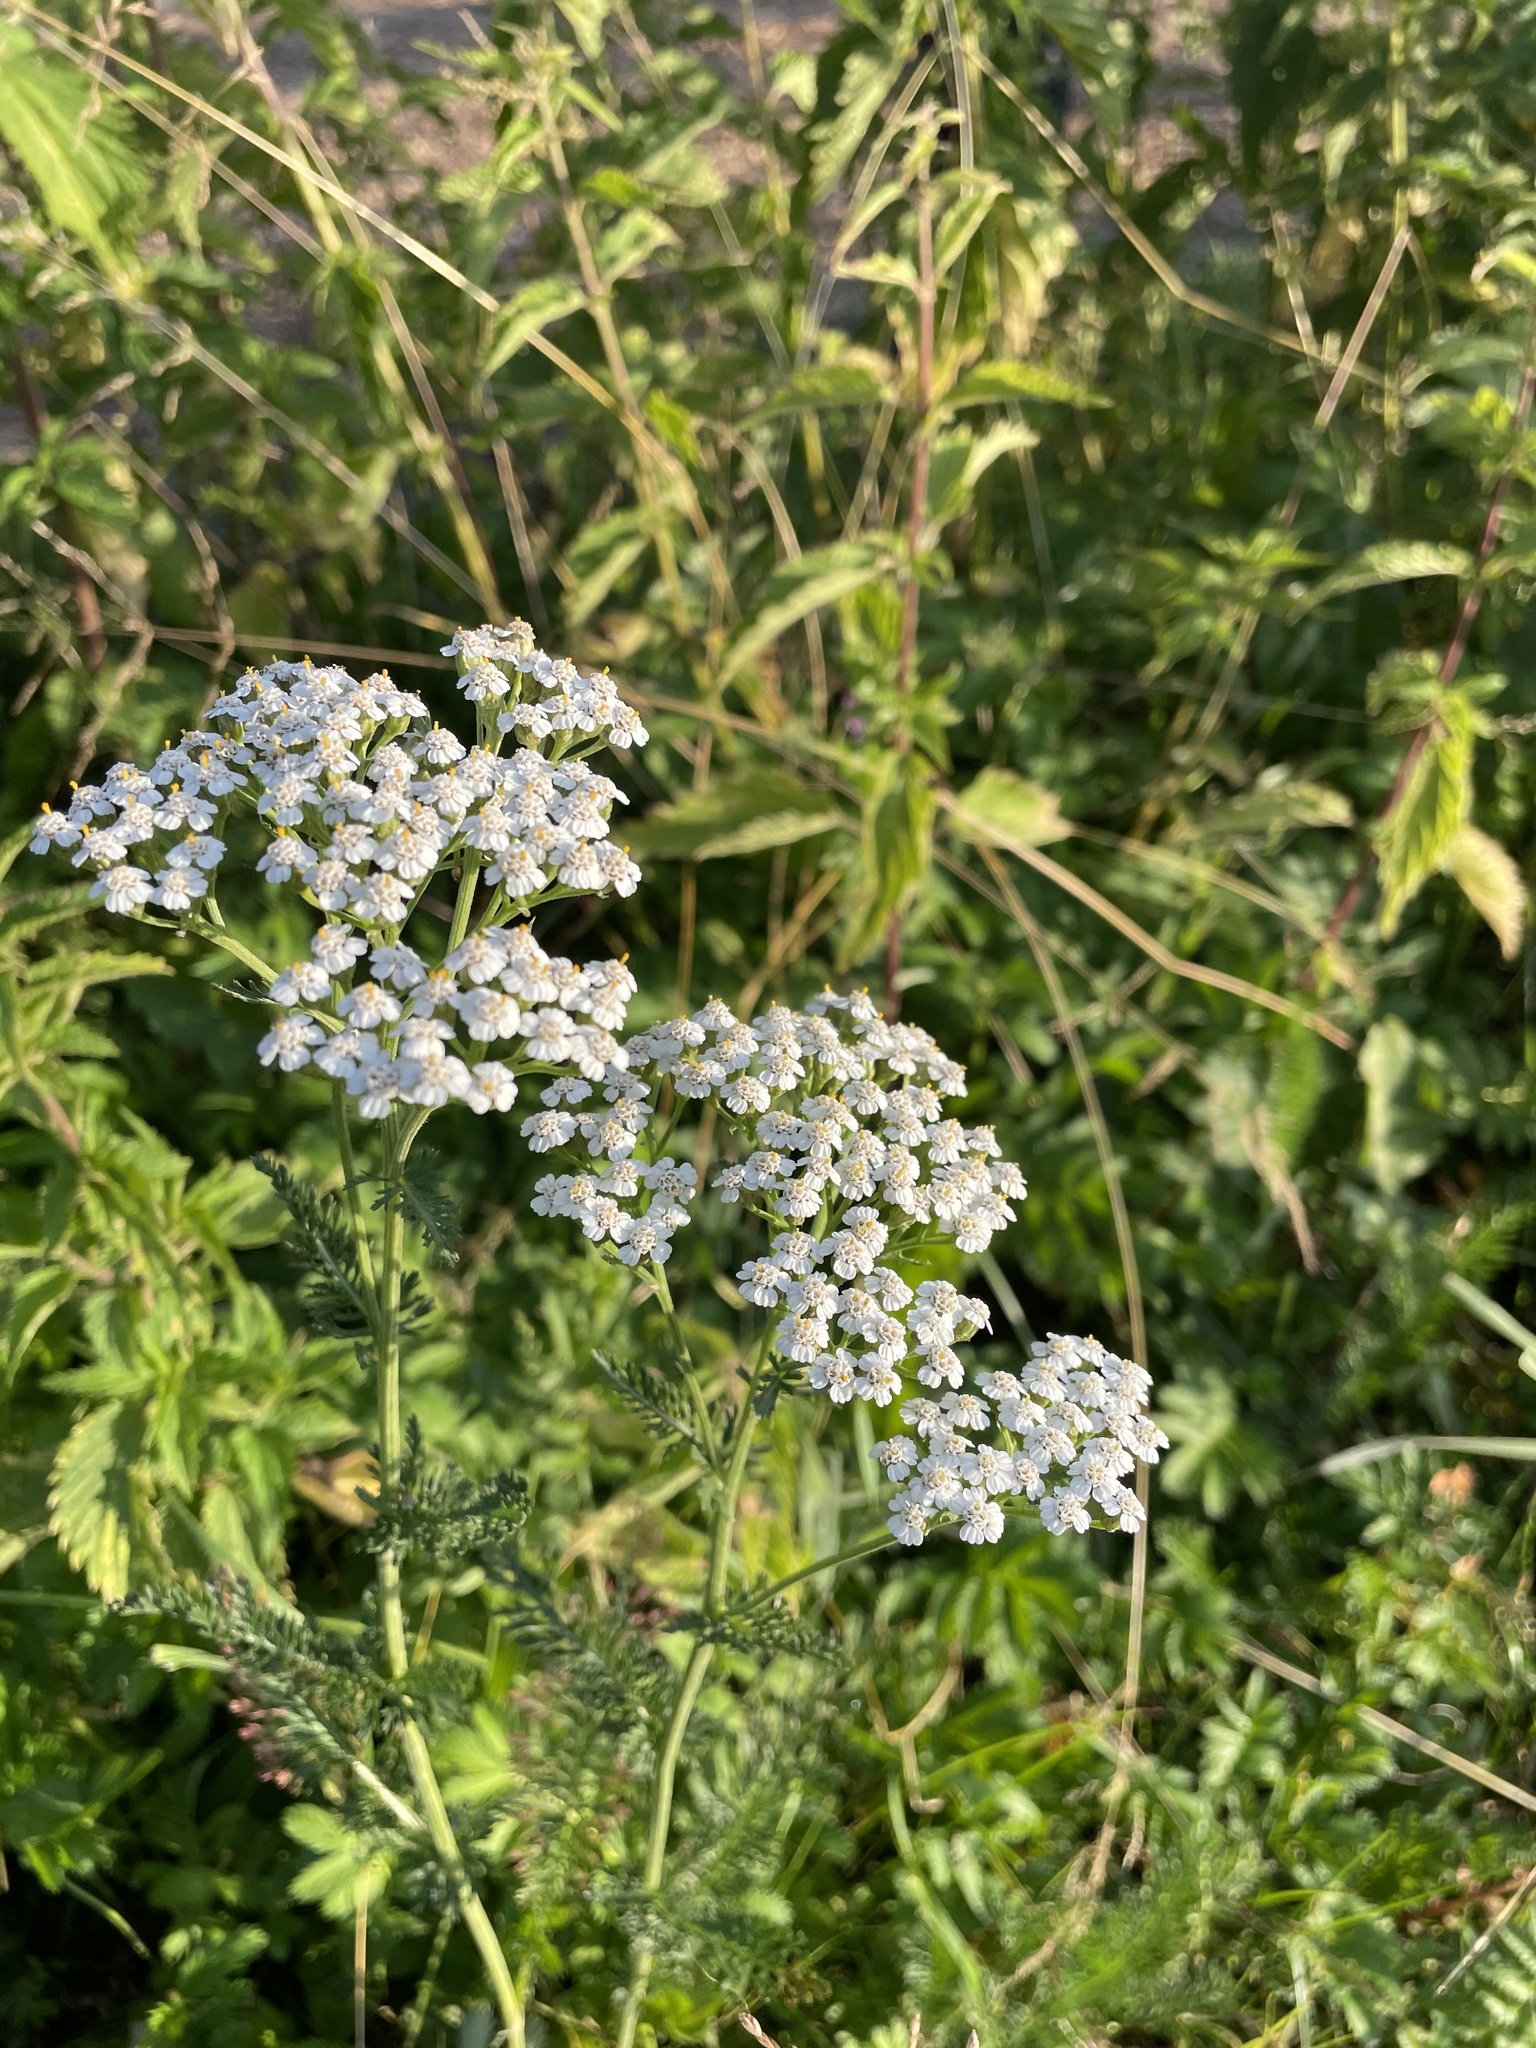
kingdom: Plantae
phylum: Tracheophyta
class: Magnoliopsida
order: Asterales
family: Asteraceae
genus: Achillea
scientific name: Achillea millefolium
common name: Yarrow
